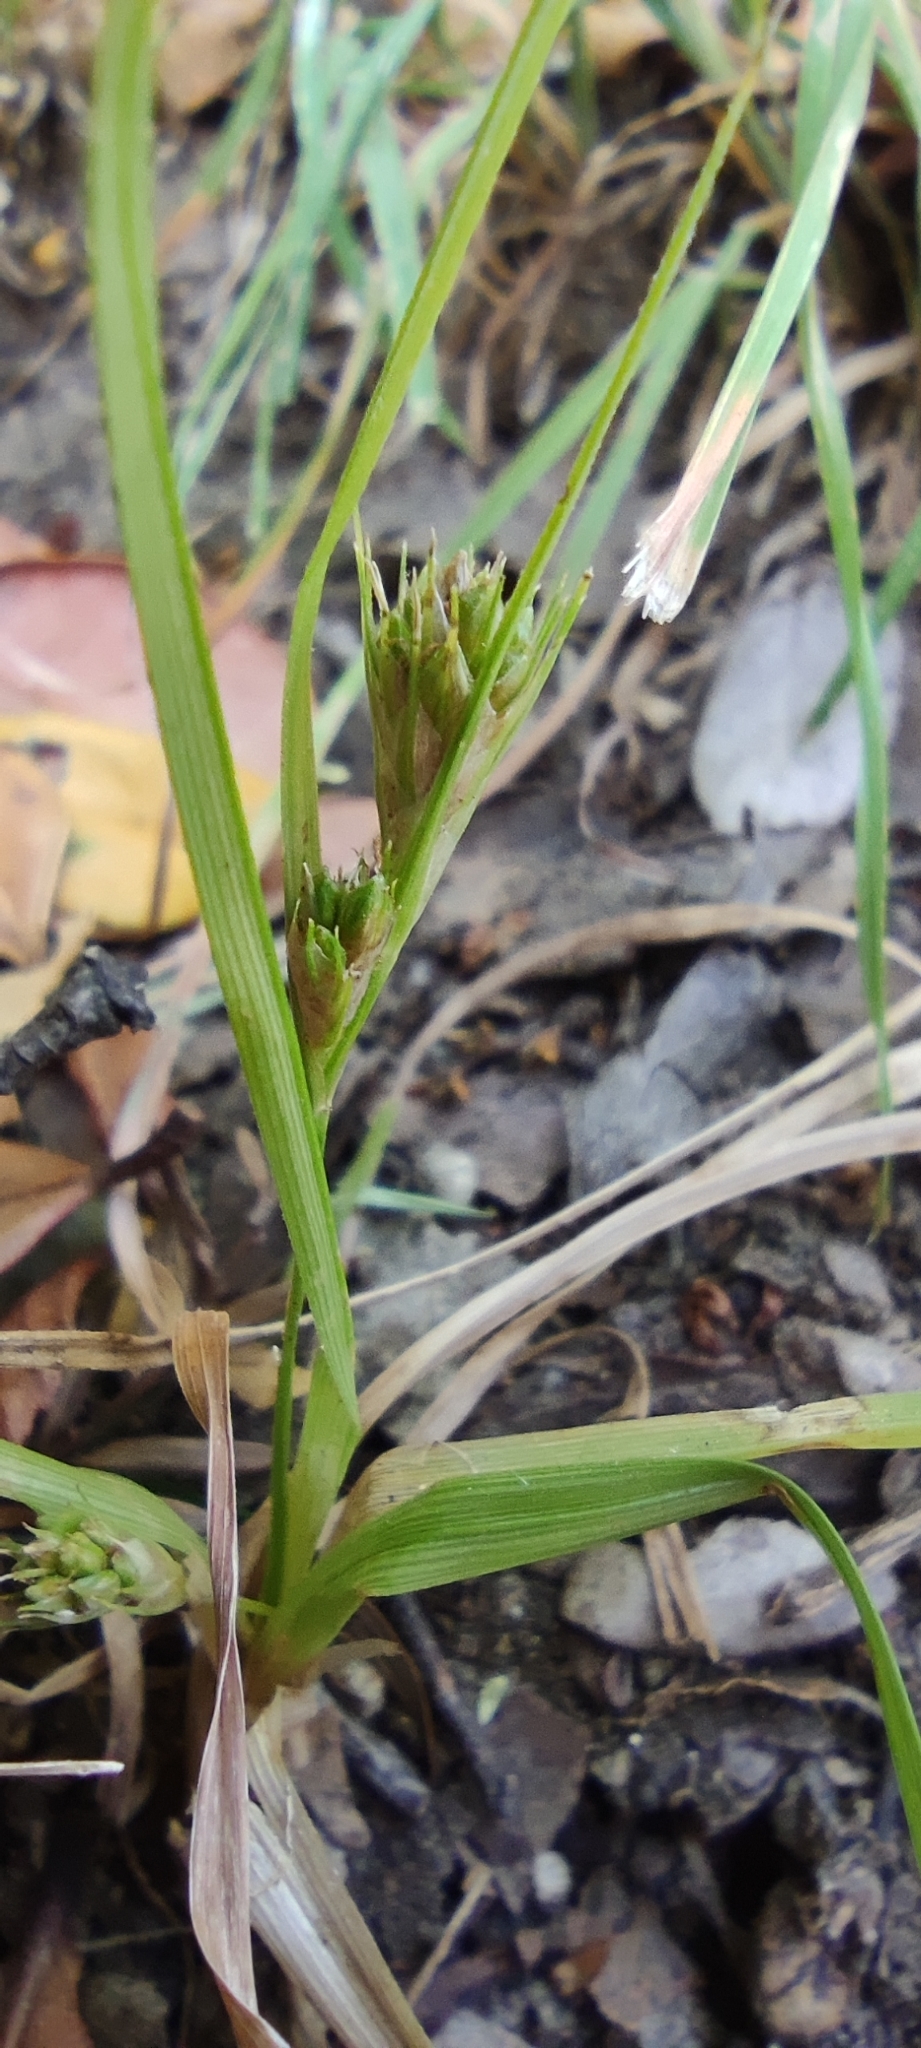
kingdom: Plantae
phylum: Tracheophyta
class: Liliopsida
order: Poales
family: Cyperaceae
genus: Carex
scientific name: Carex phalaroides
